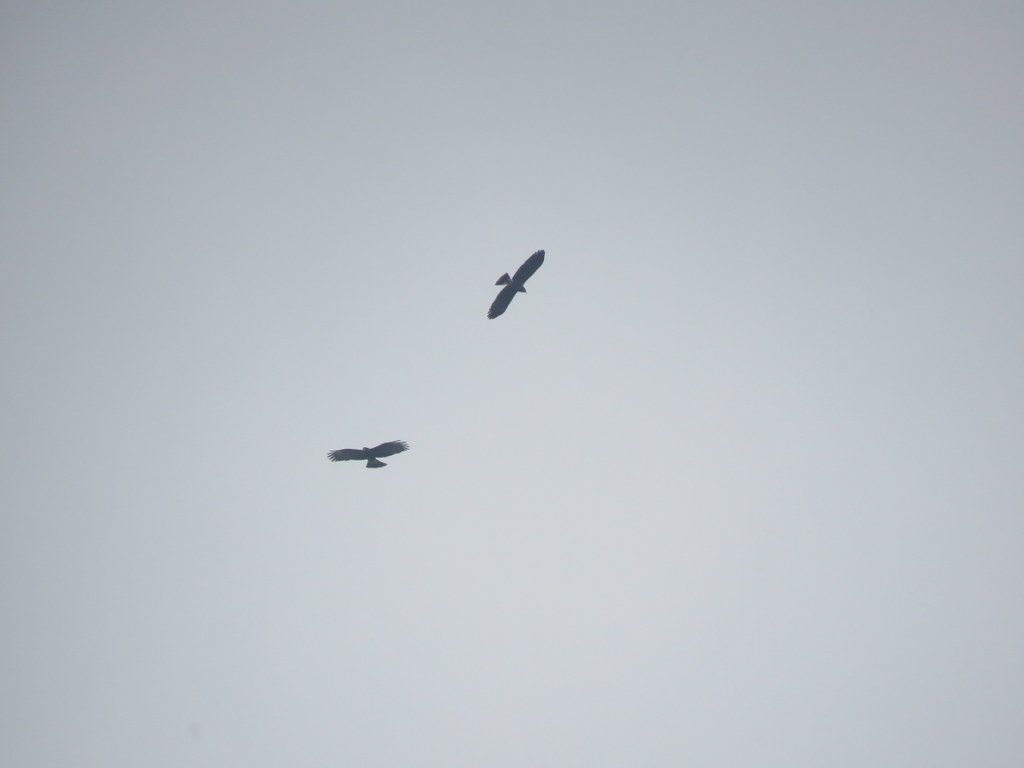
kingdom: Animalia
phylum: Chordata
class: Aves
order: Accipitriformes
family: Accipitridae
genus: Rostrhamus
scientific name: Rostrhamus sociabilis
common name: Snail kite
